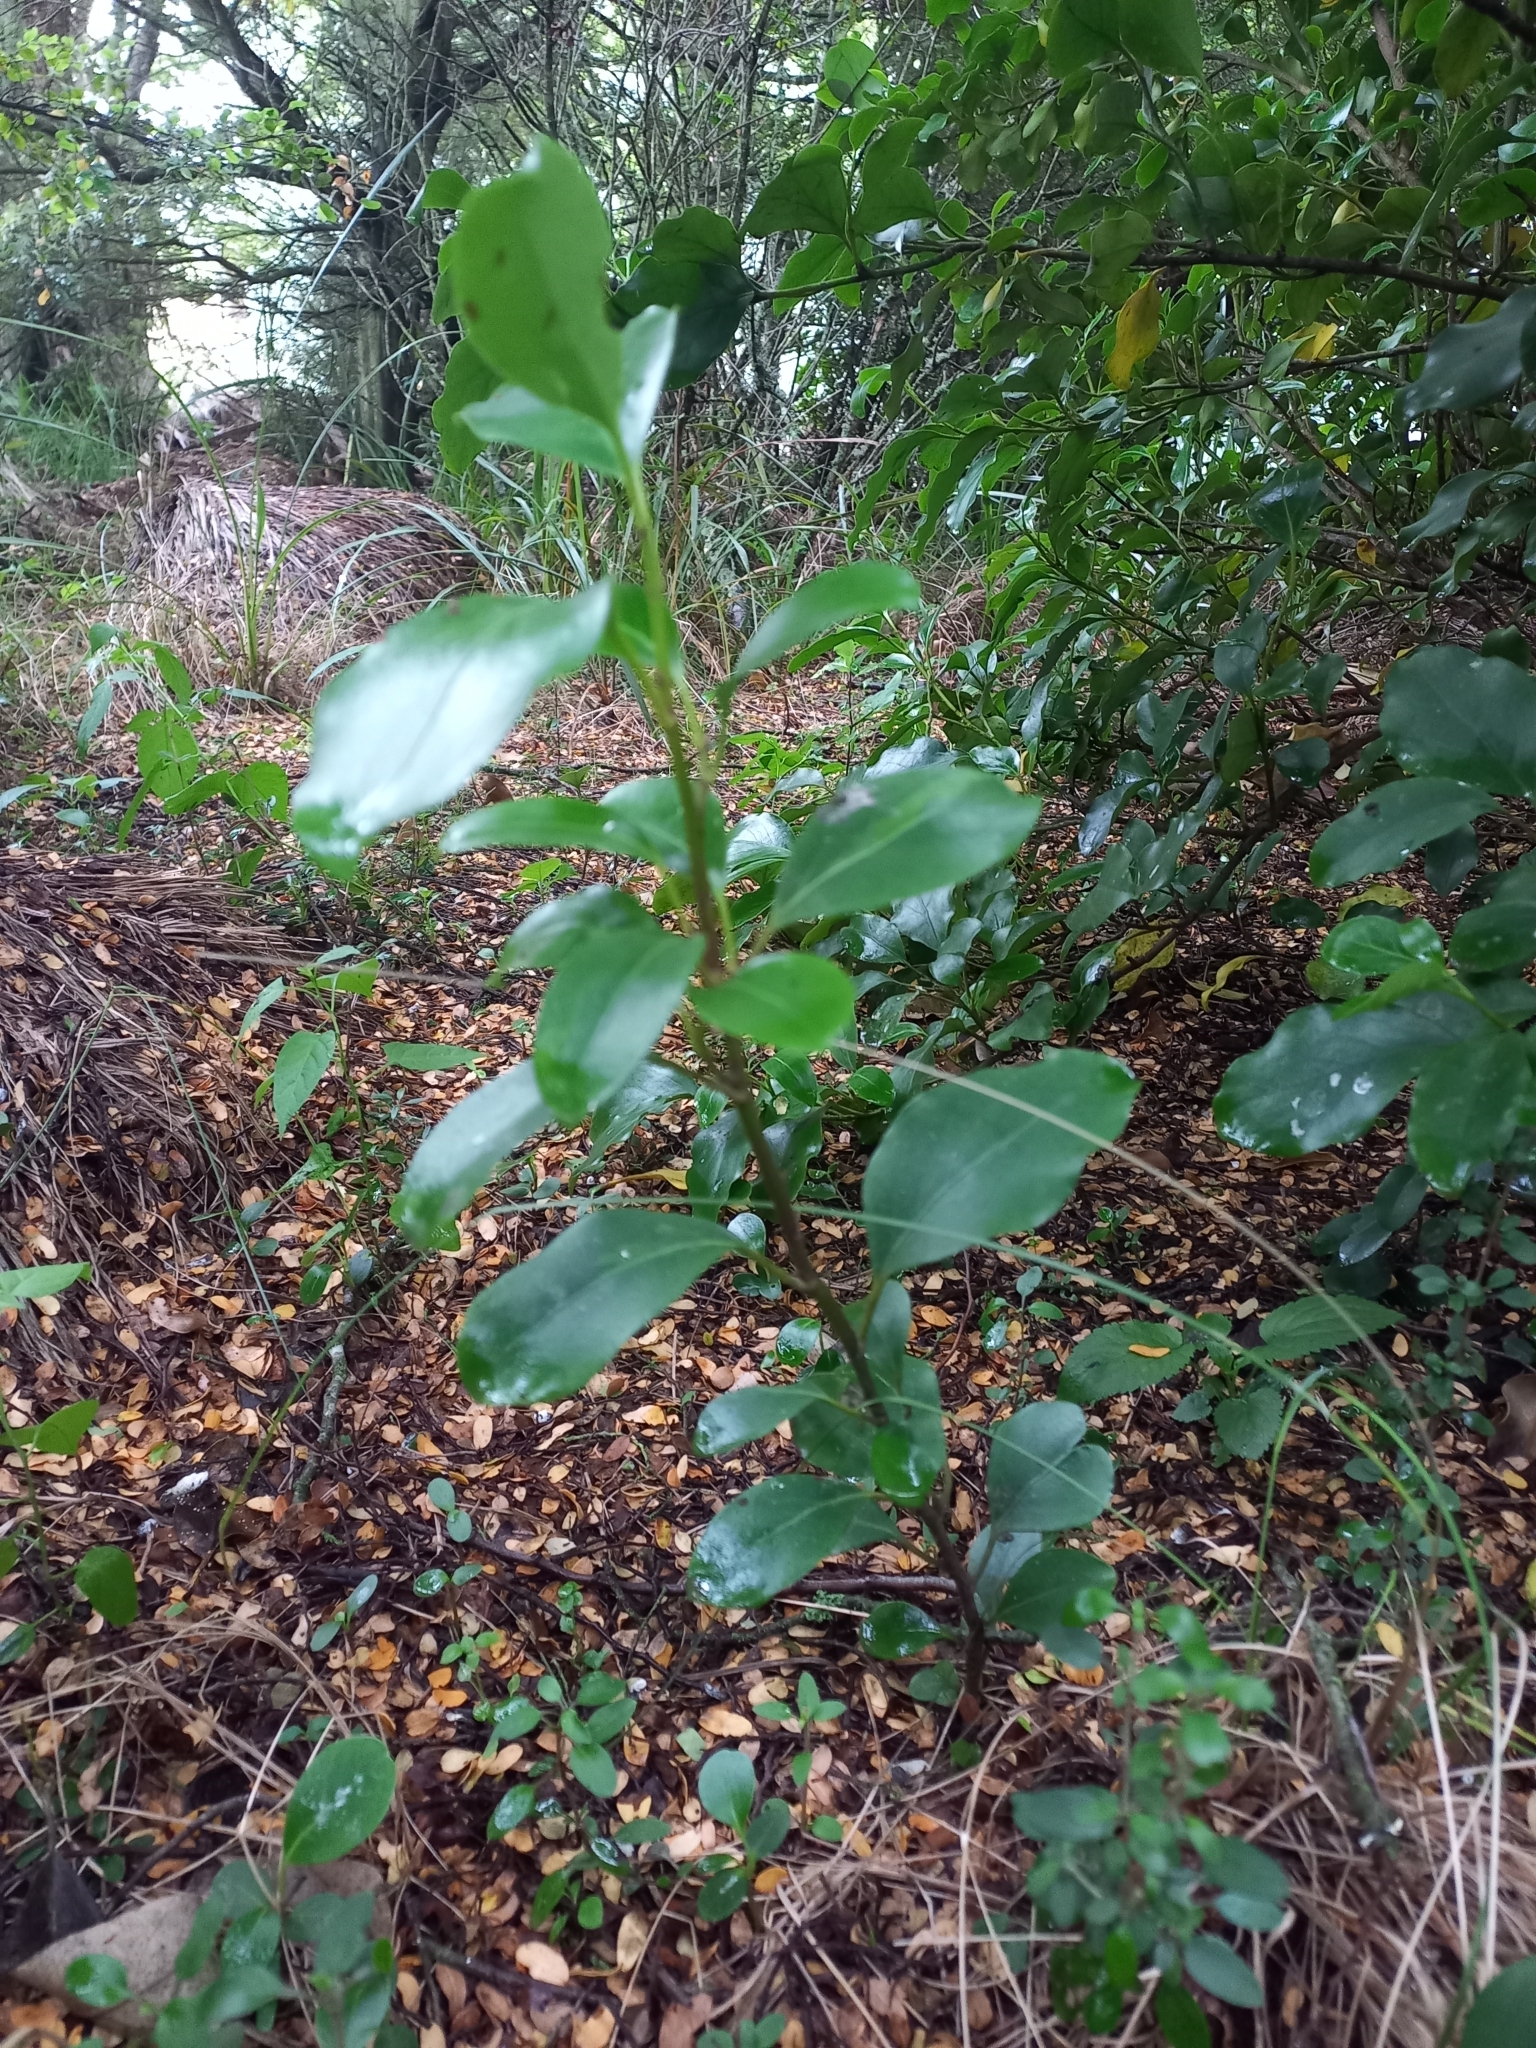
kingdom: Plantae
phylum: Tracheophyta
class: Magnoliopsida
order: Apiales
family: Griseliniaceae
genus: Griselinia
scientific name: Griselinia littoralis
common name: New zealand broadleaf
